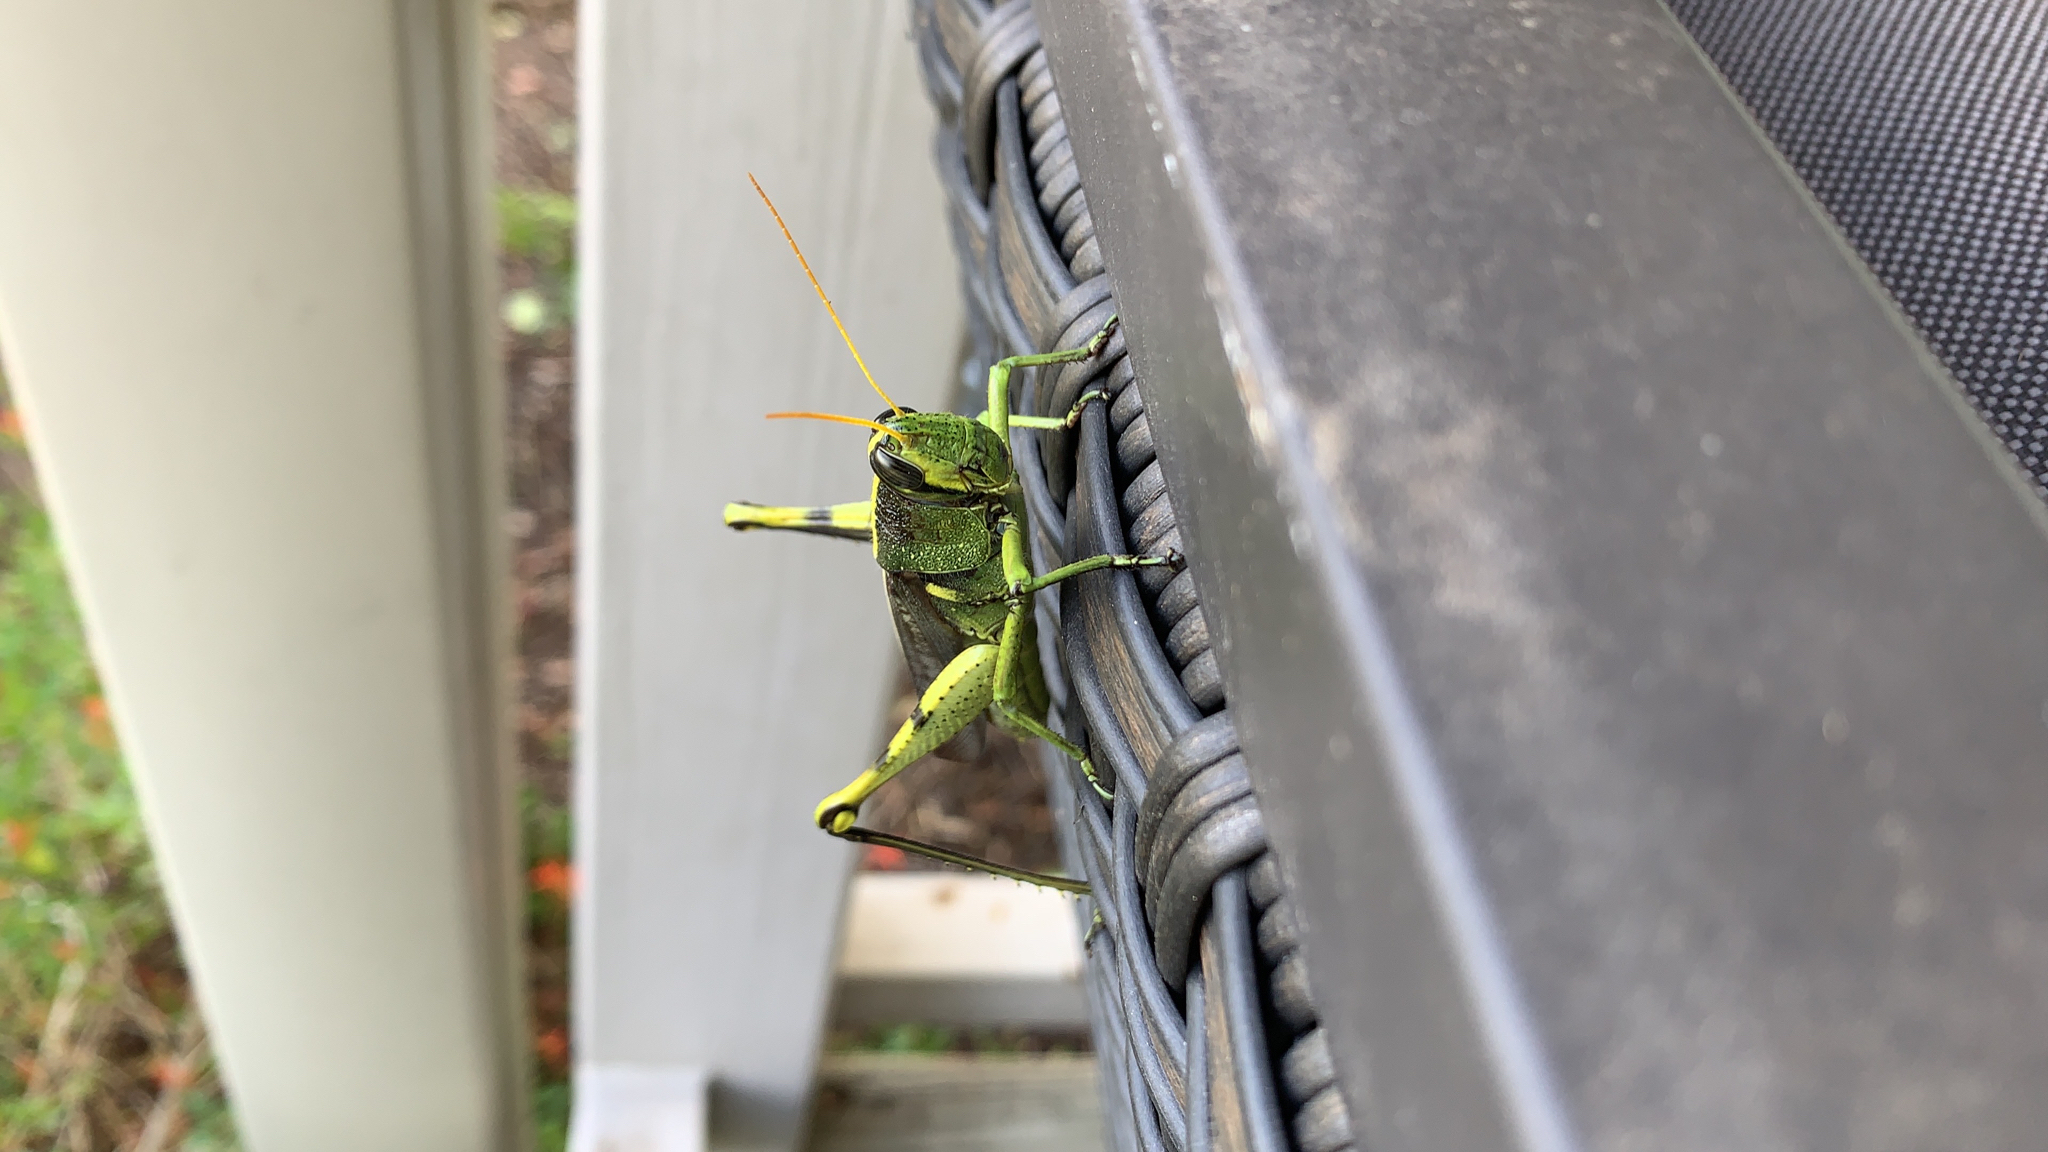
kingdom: Animalia
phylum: Arthropoda
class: Insecta
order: Orthoptera
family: Acrididae
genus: Schistocerca
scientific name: Schistocerca obscura
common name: Obscure bird grasshopper
